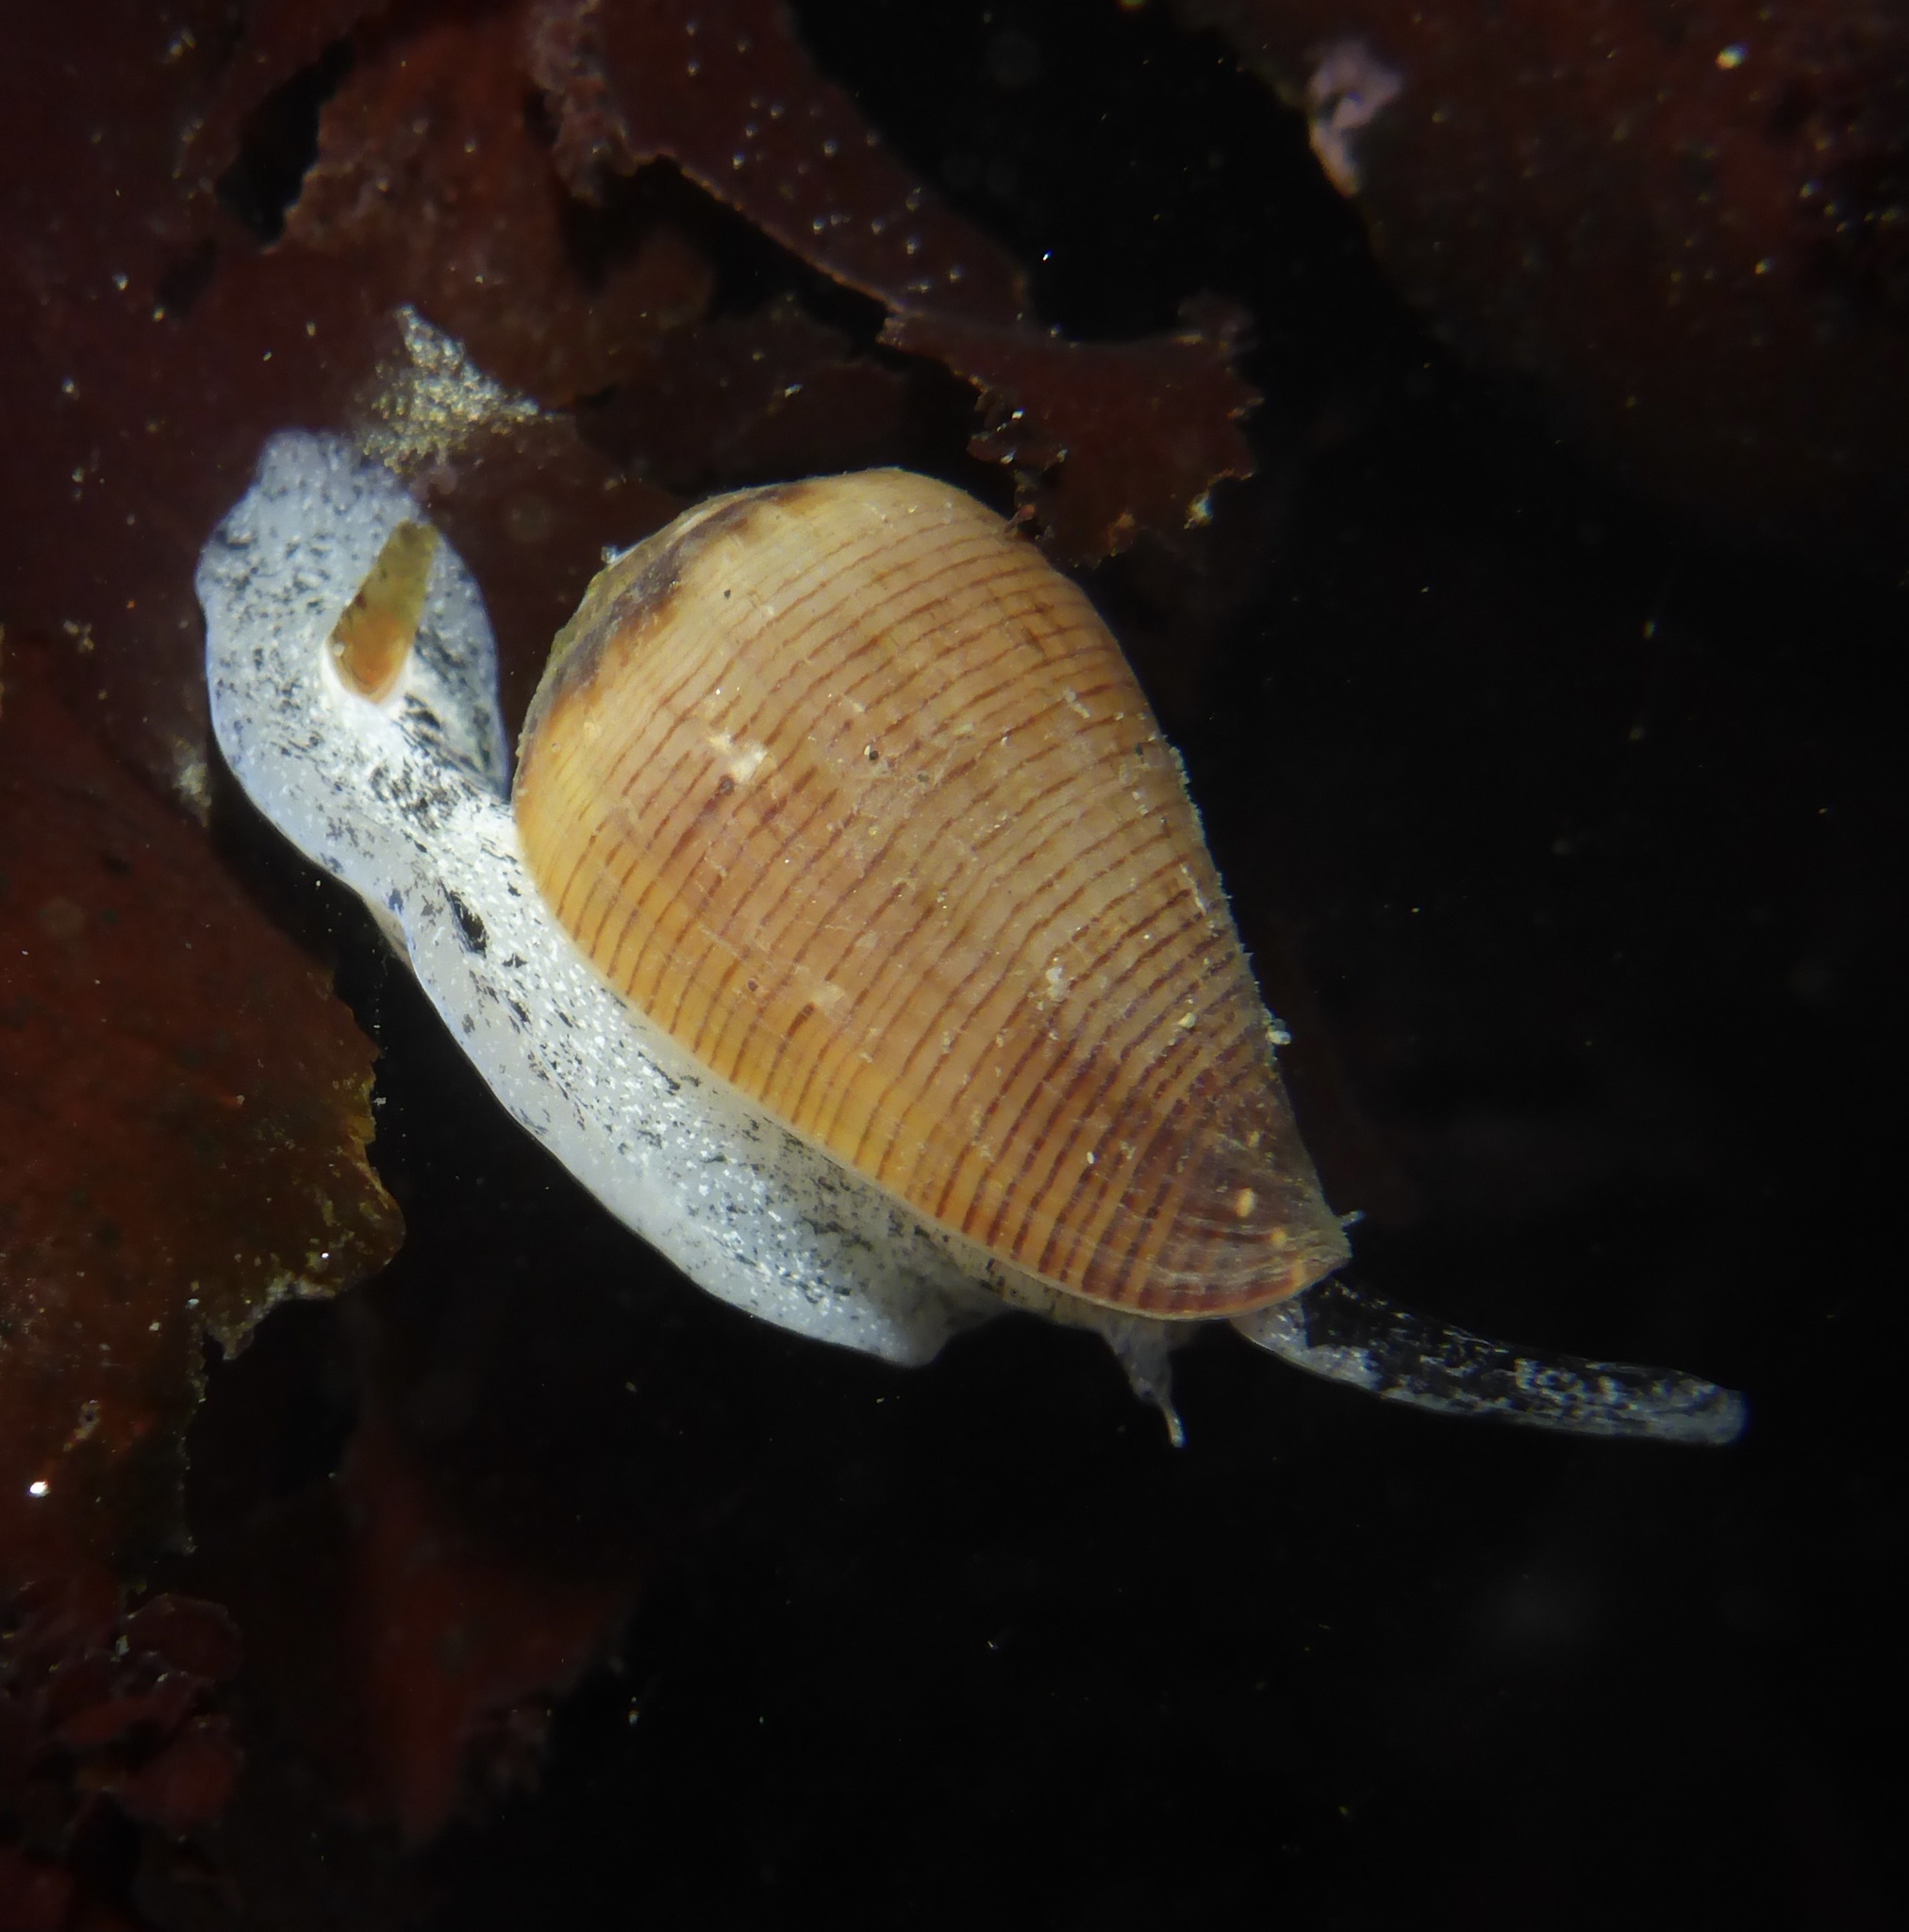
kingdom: Animalia
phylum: Mollusca
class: Gastropoda
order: Neogastropoda
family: Conidae
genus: Californiconus
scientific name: Californiconus californicus
